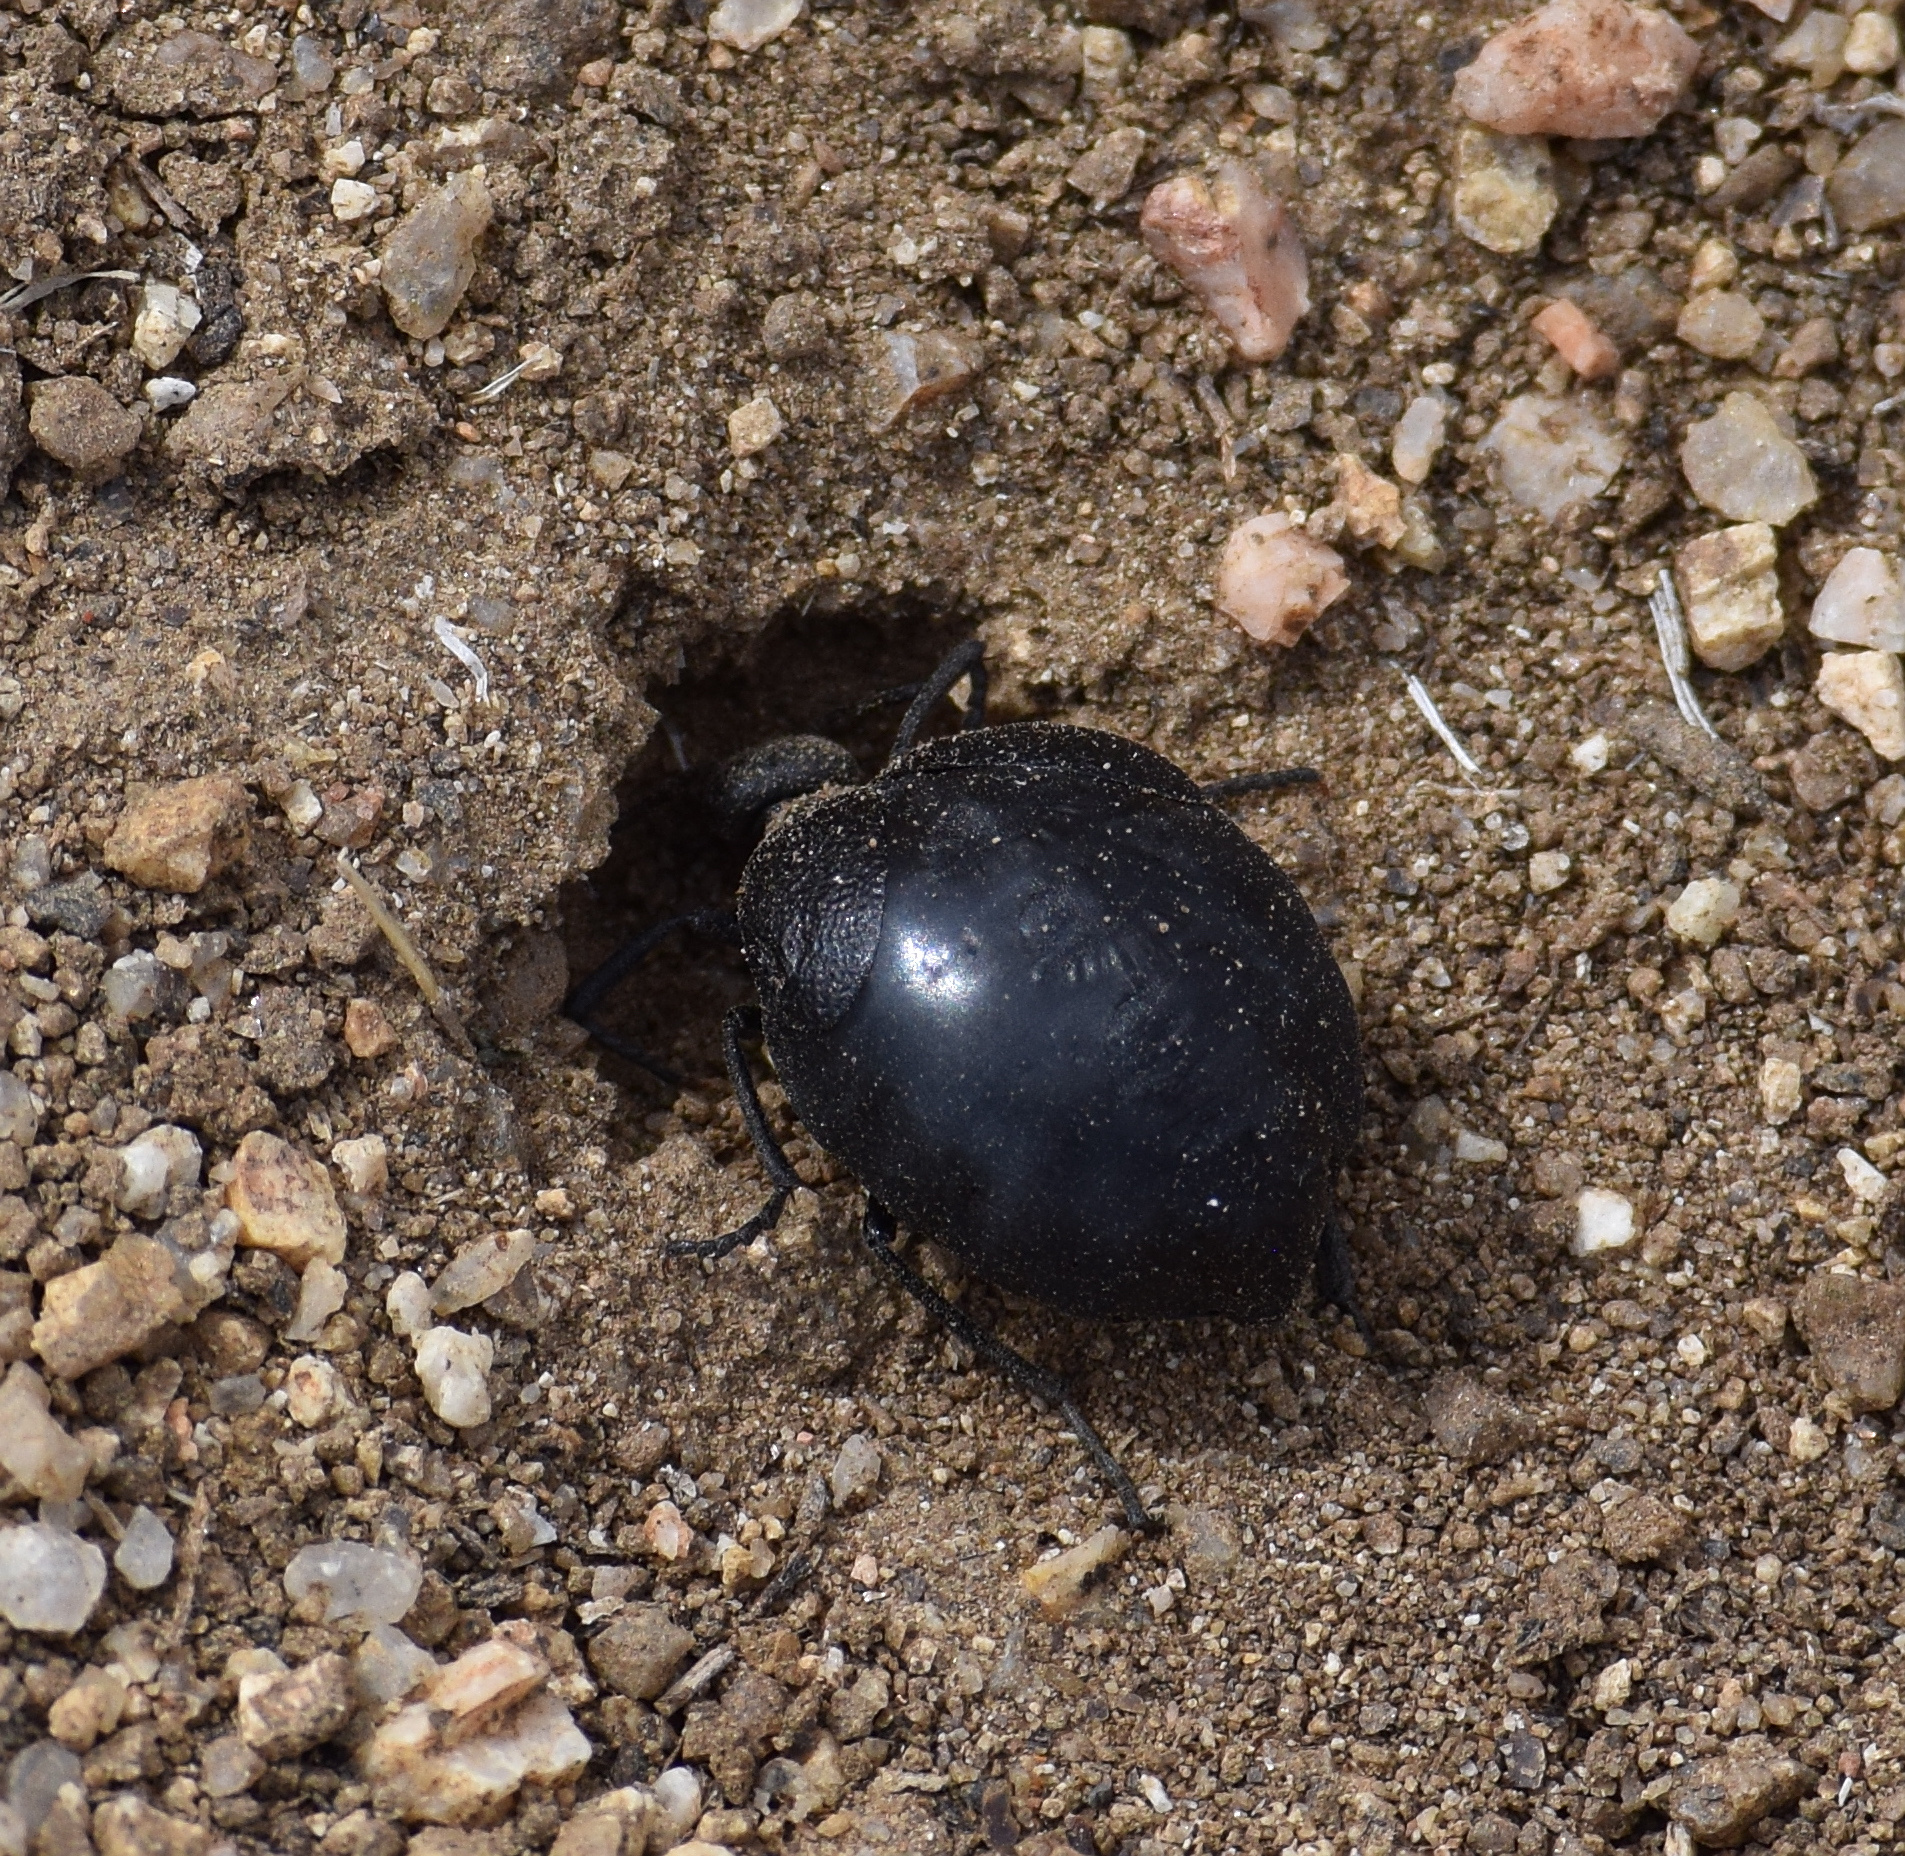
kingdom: Animalia
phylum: Arthropoda
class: Insecta
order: Coleoptera
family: Meloidae
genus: Cordylospasta
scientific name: Cordylospasta
